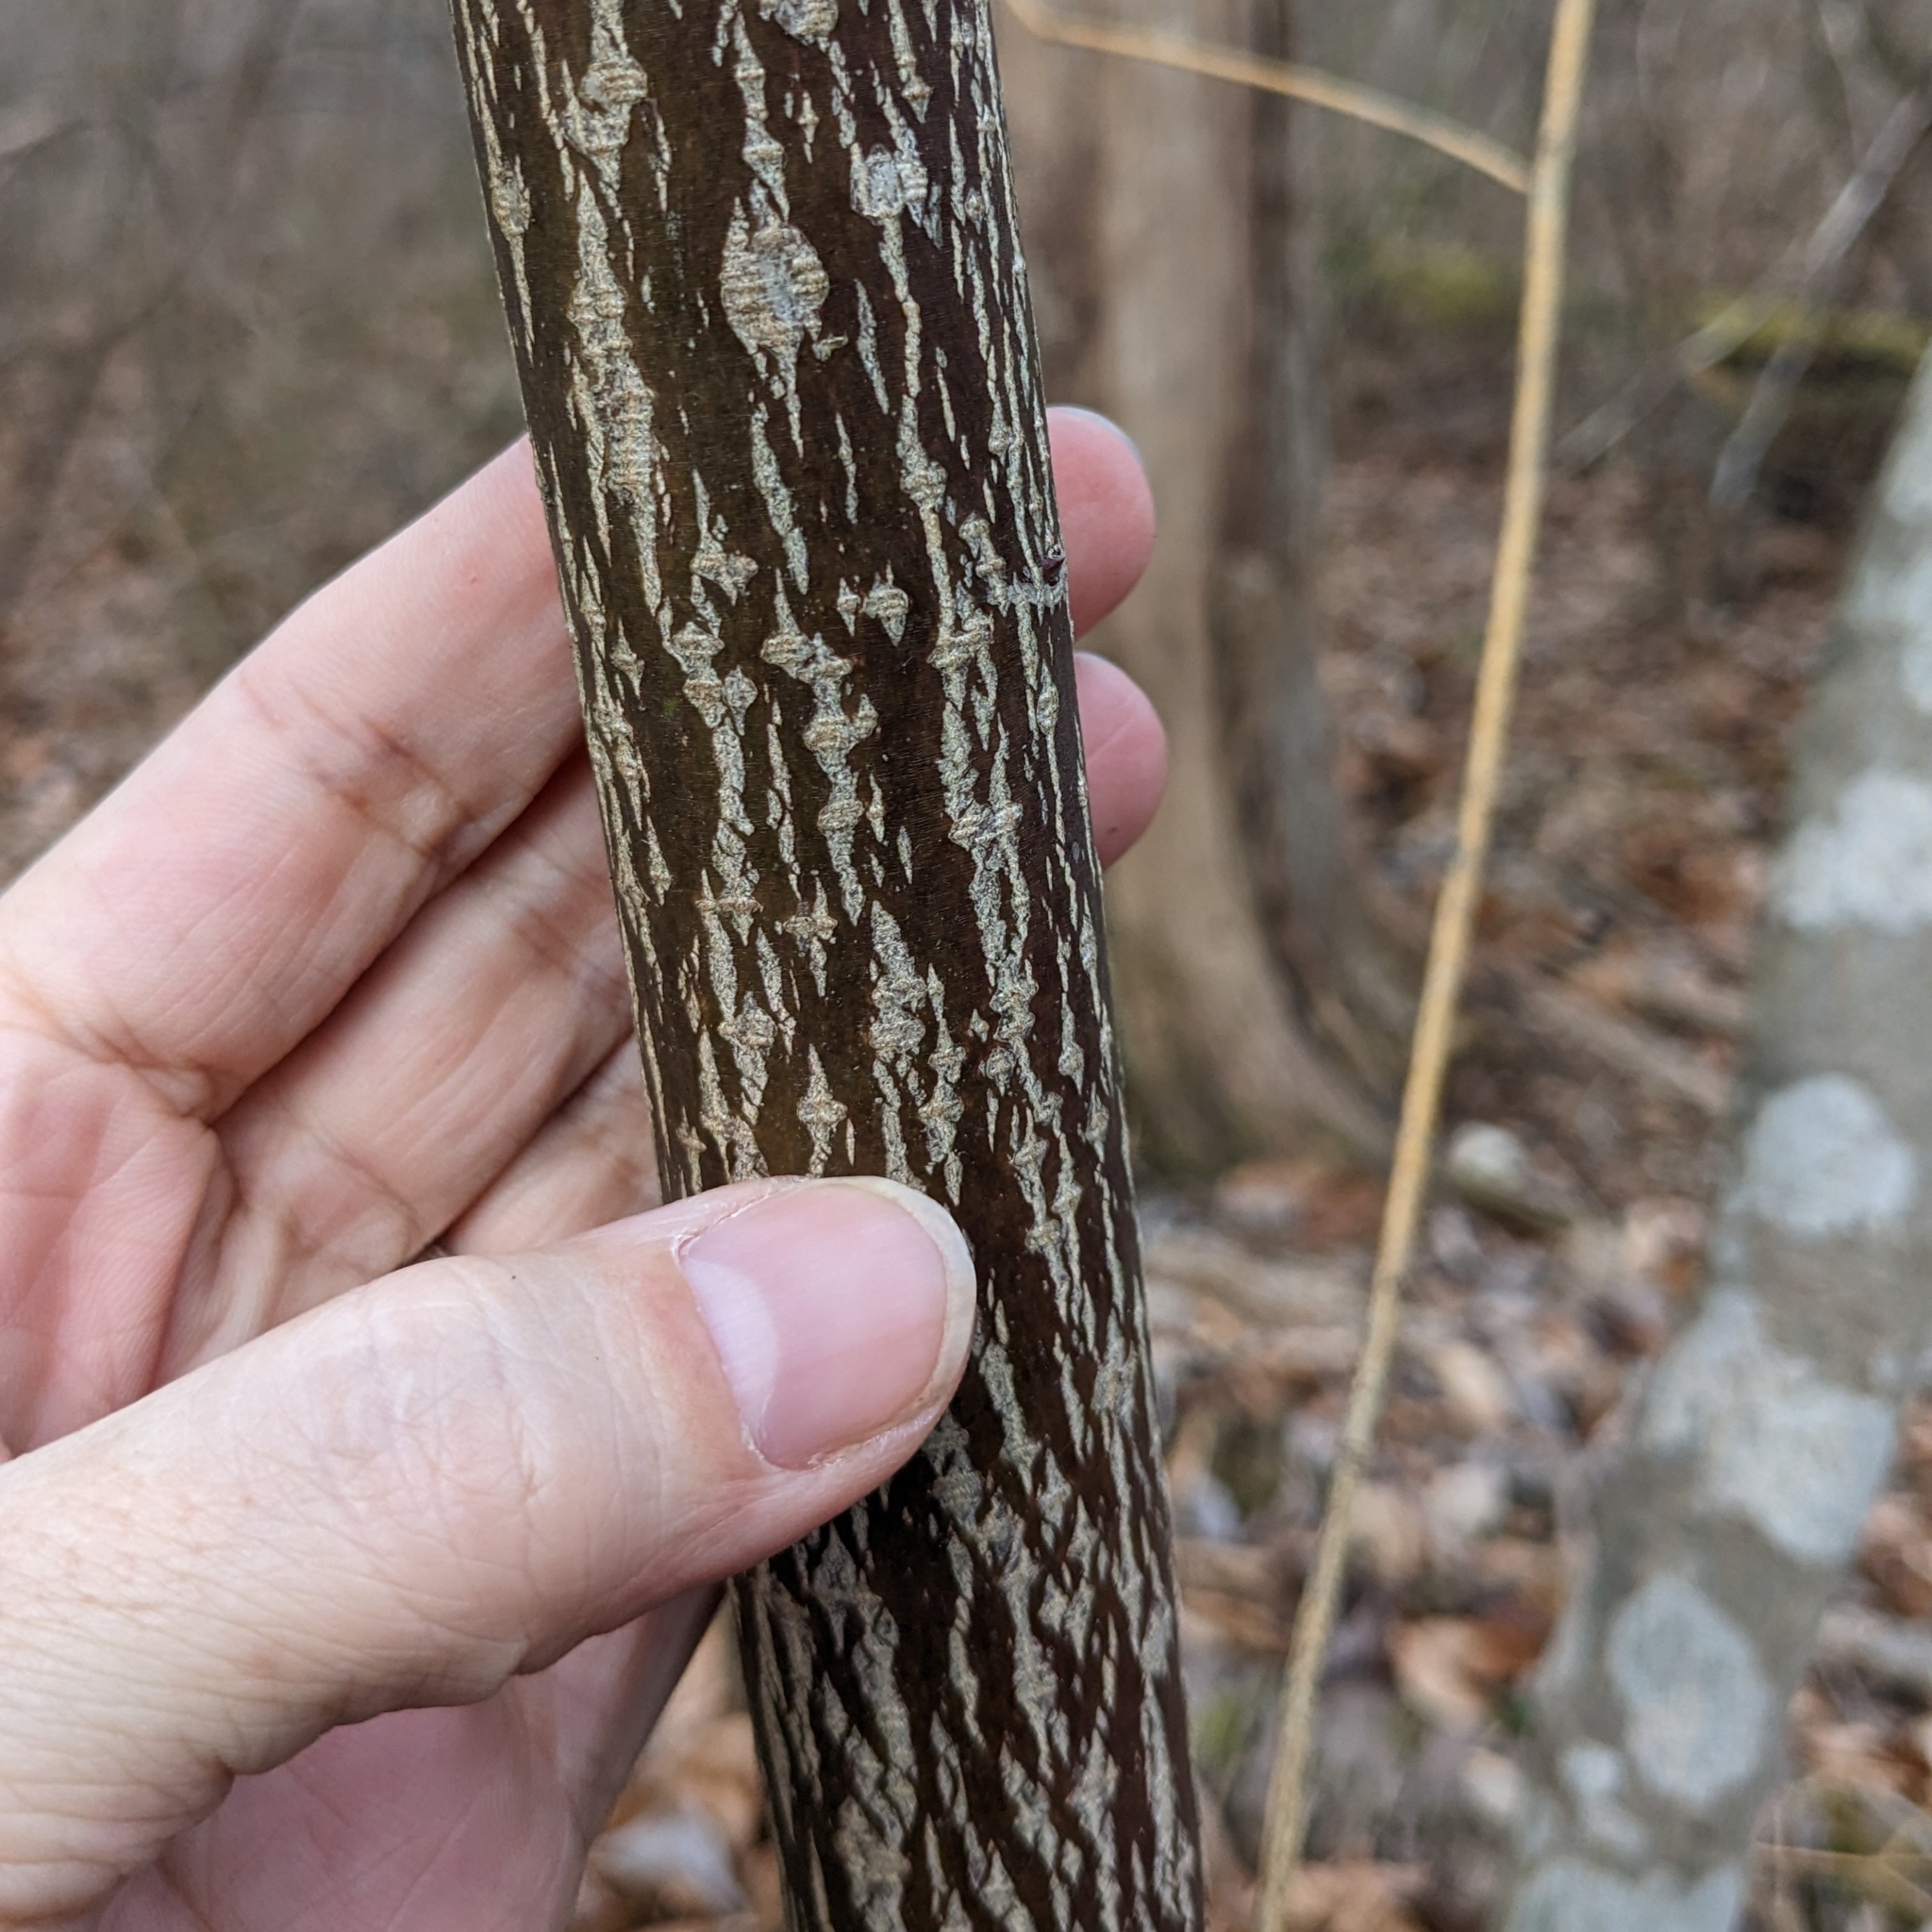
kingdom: Plantae
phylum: Tracheophyta
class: Magnoliopsida
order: Cornales
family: Cornaceae
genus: Cornus
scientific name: Cornus alternifolia
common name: Pagoda dogwood
